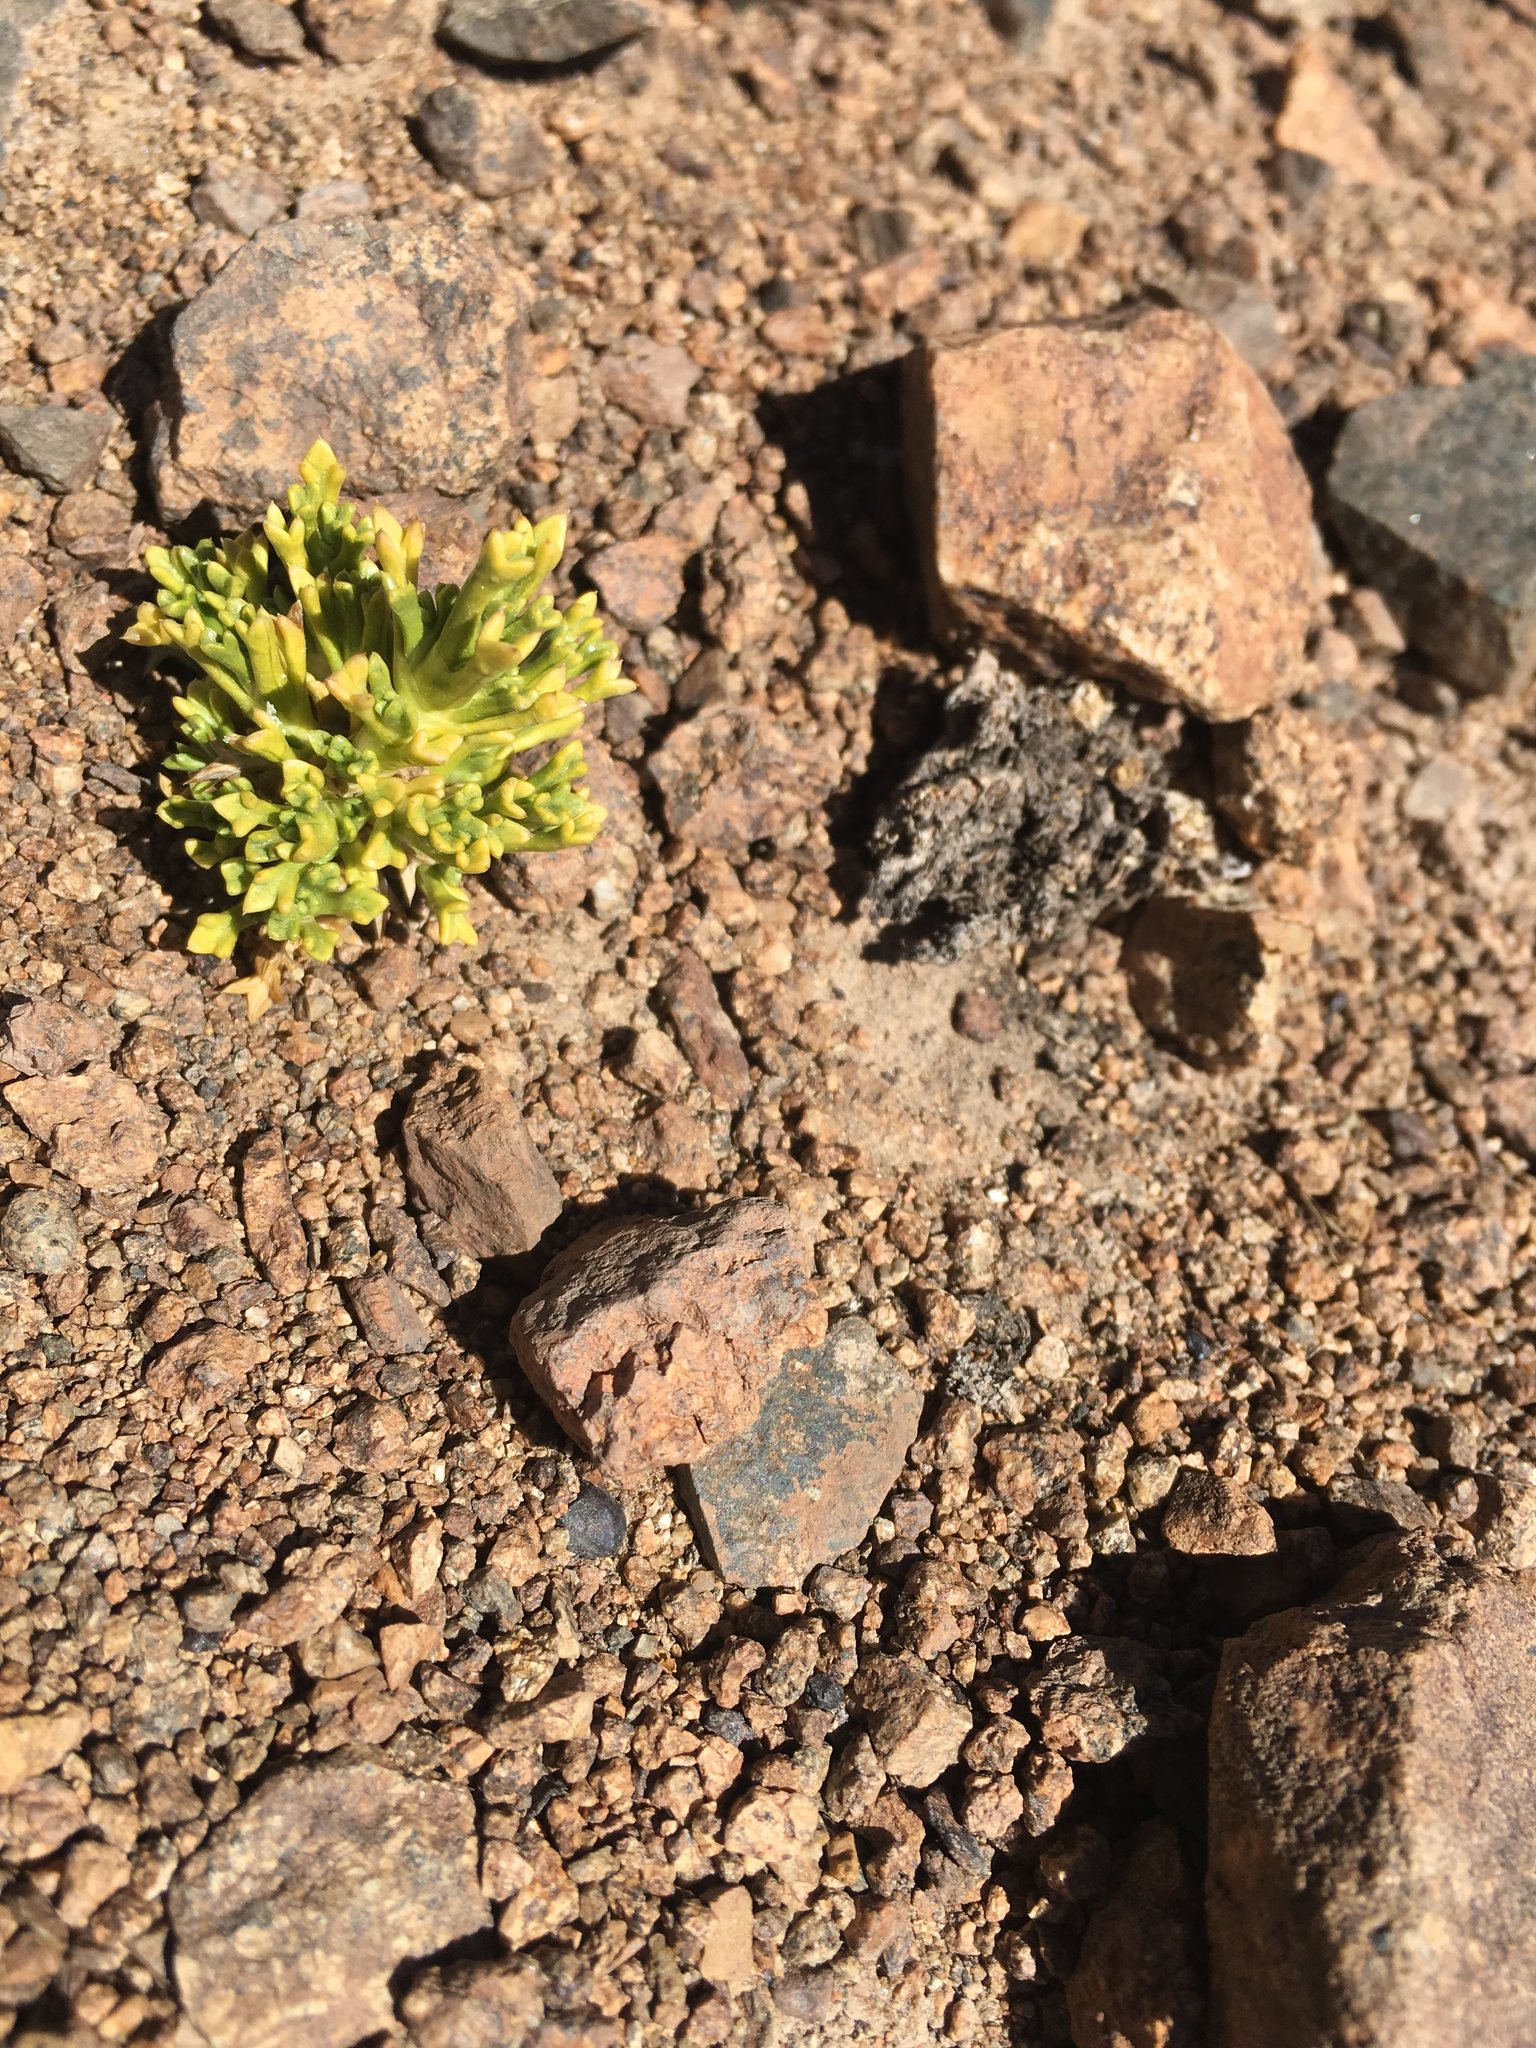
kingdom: Plantae
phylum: Tracheophyta
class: Magnoliopsida
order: Apiales
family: Apiaceae
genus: Azorella
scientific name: Azorella trisecta
